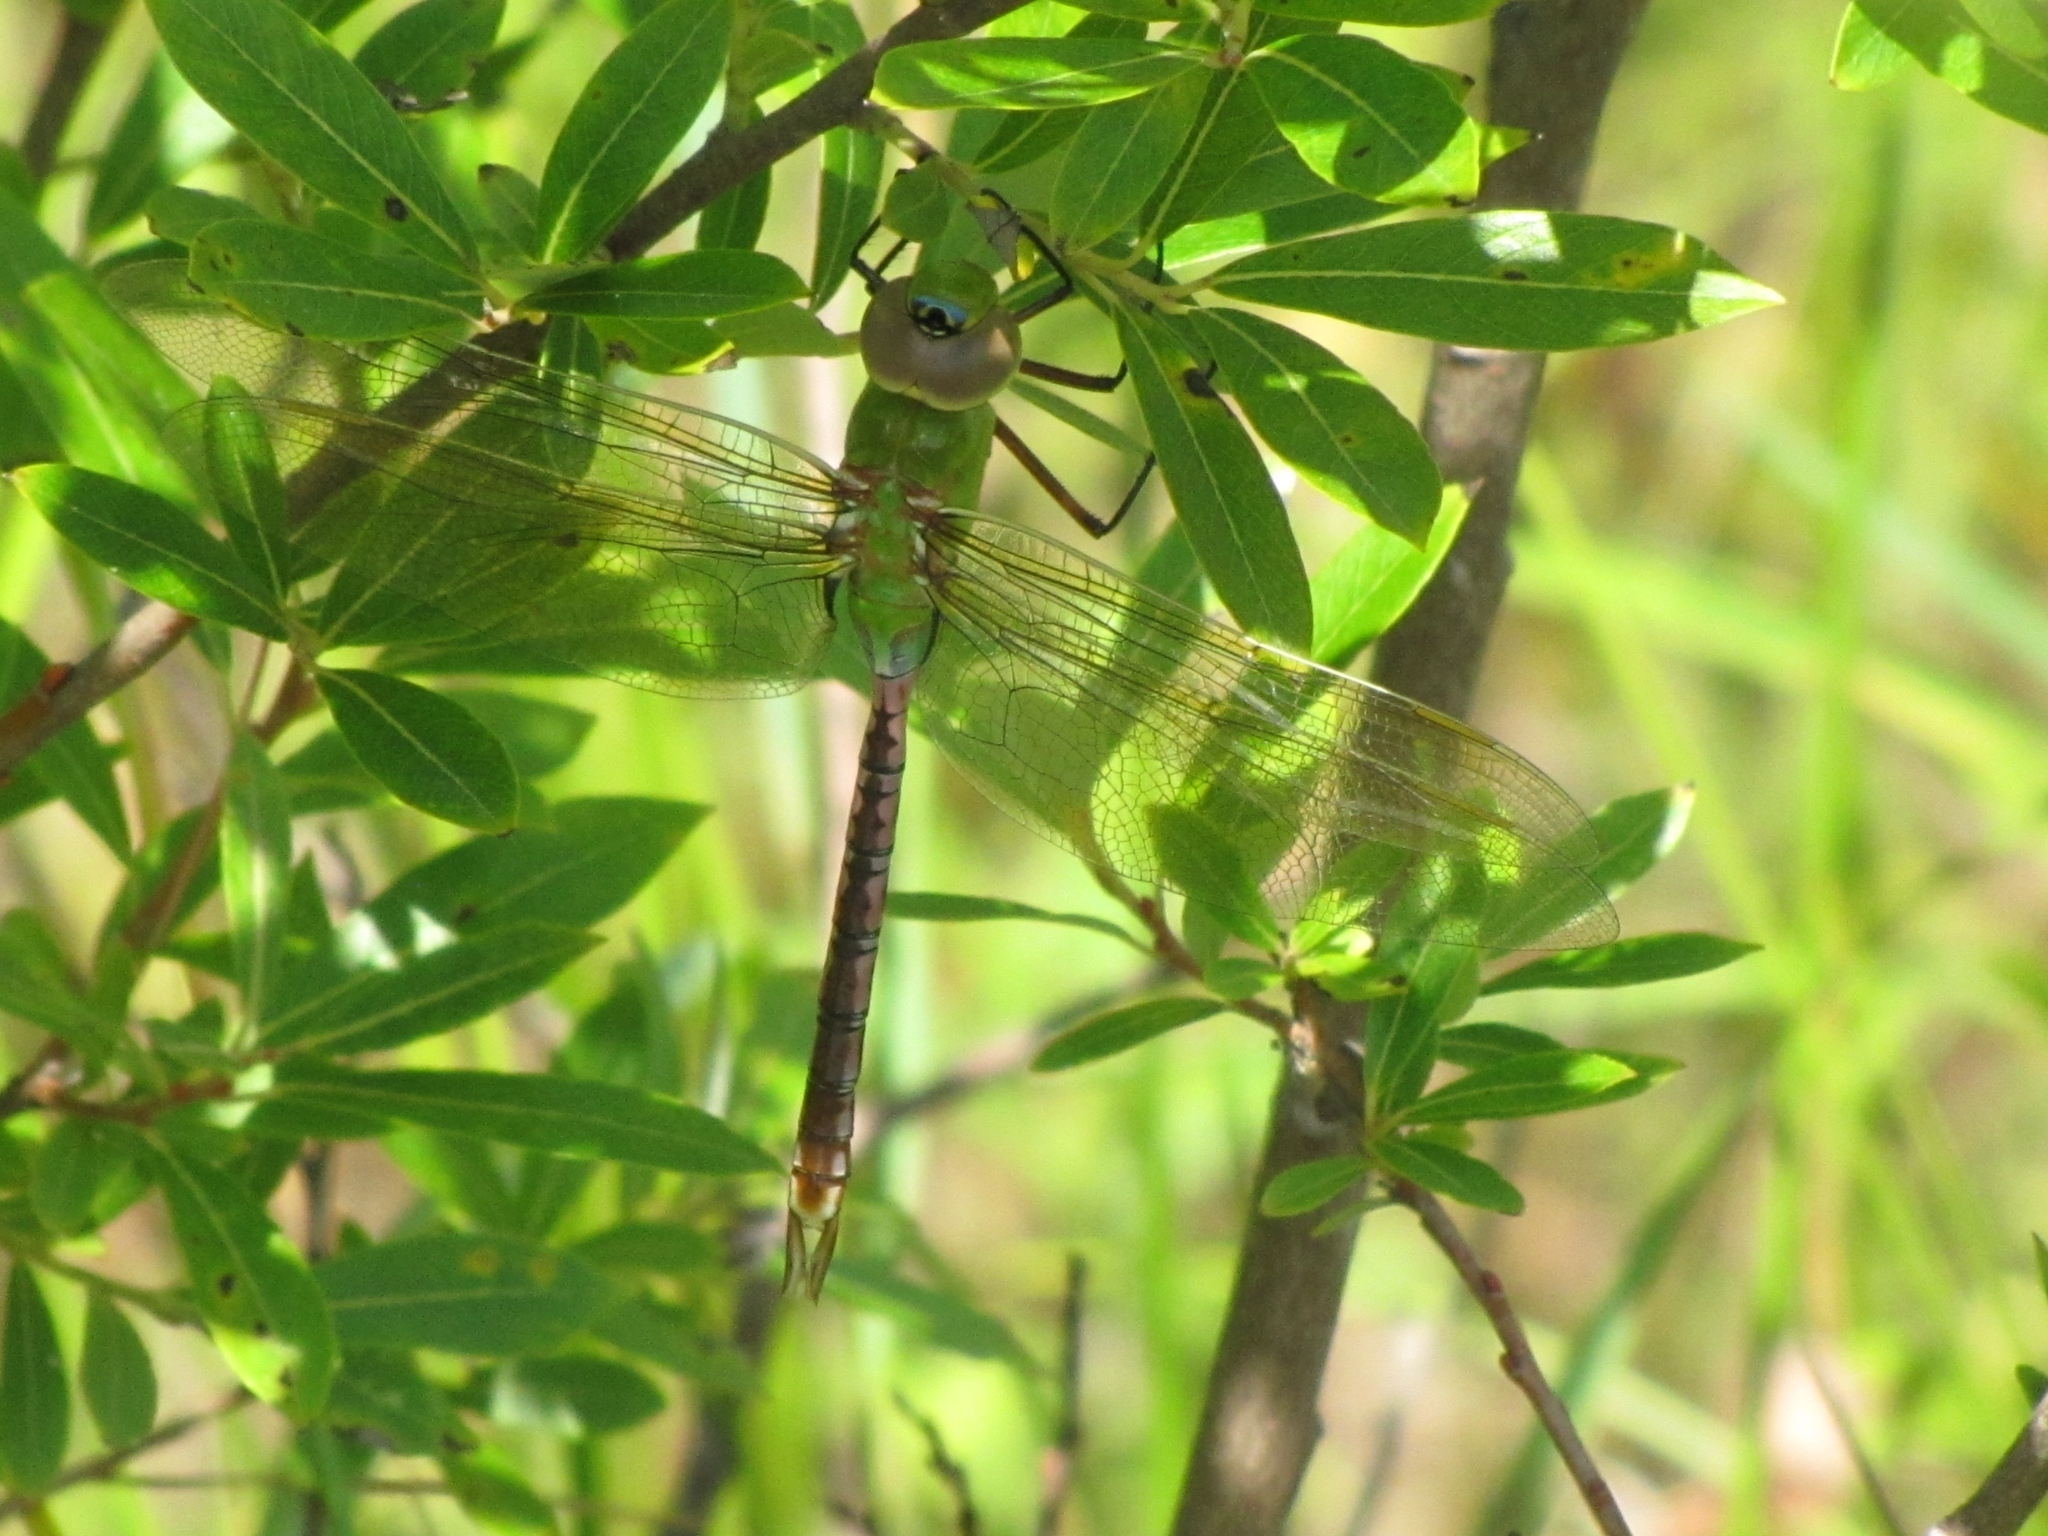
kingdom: Animalia
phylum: Arthropoda
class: Insecta
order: Odonata
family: Aeshnidae
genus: Anax
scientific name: Anax junius
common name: Common green darner
